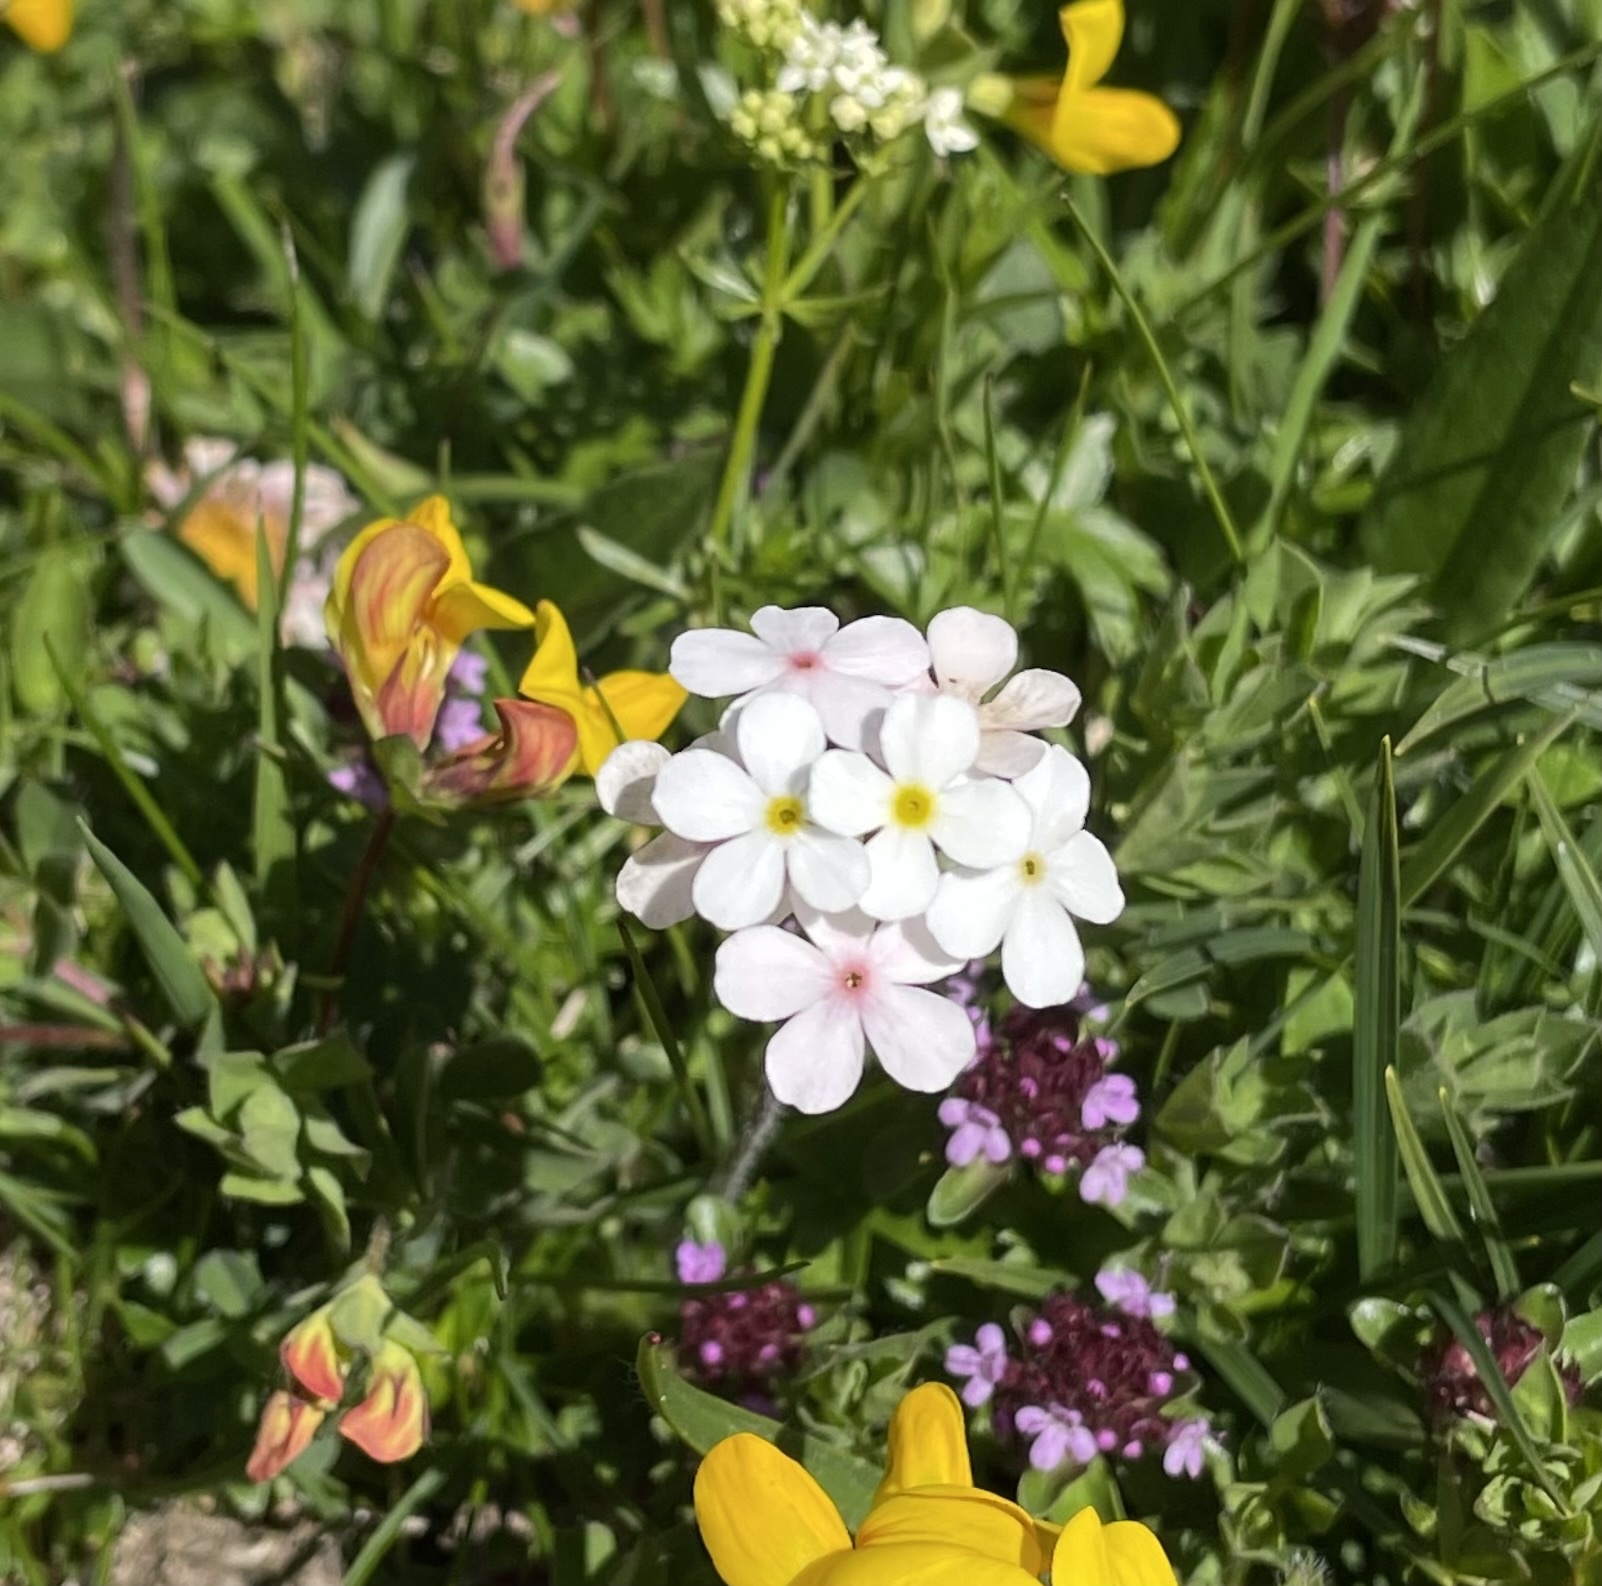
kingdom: Plantae
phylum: Tracheophyta
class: Magnoliopsida
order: Ericales
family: Primulaceae
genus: Androsace
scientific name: Androsace chamaejasme
